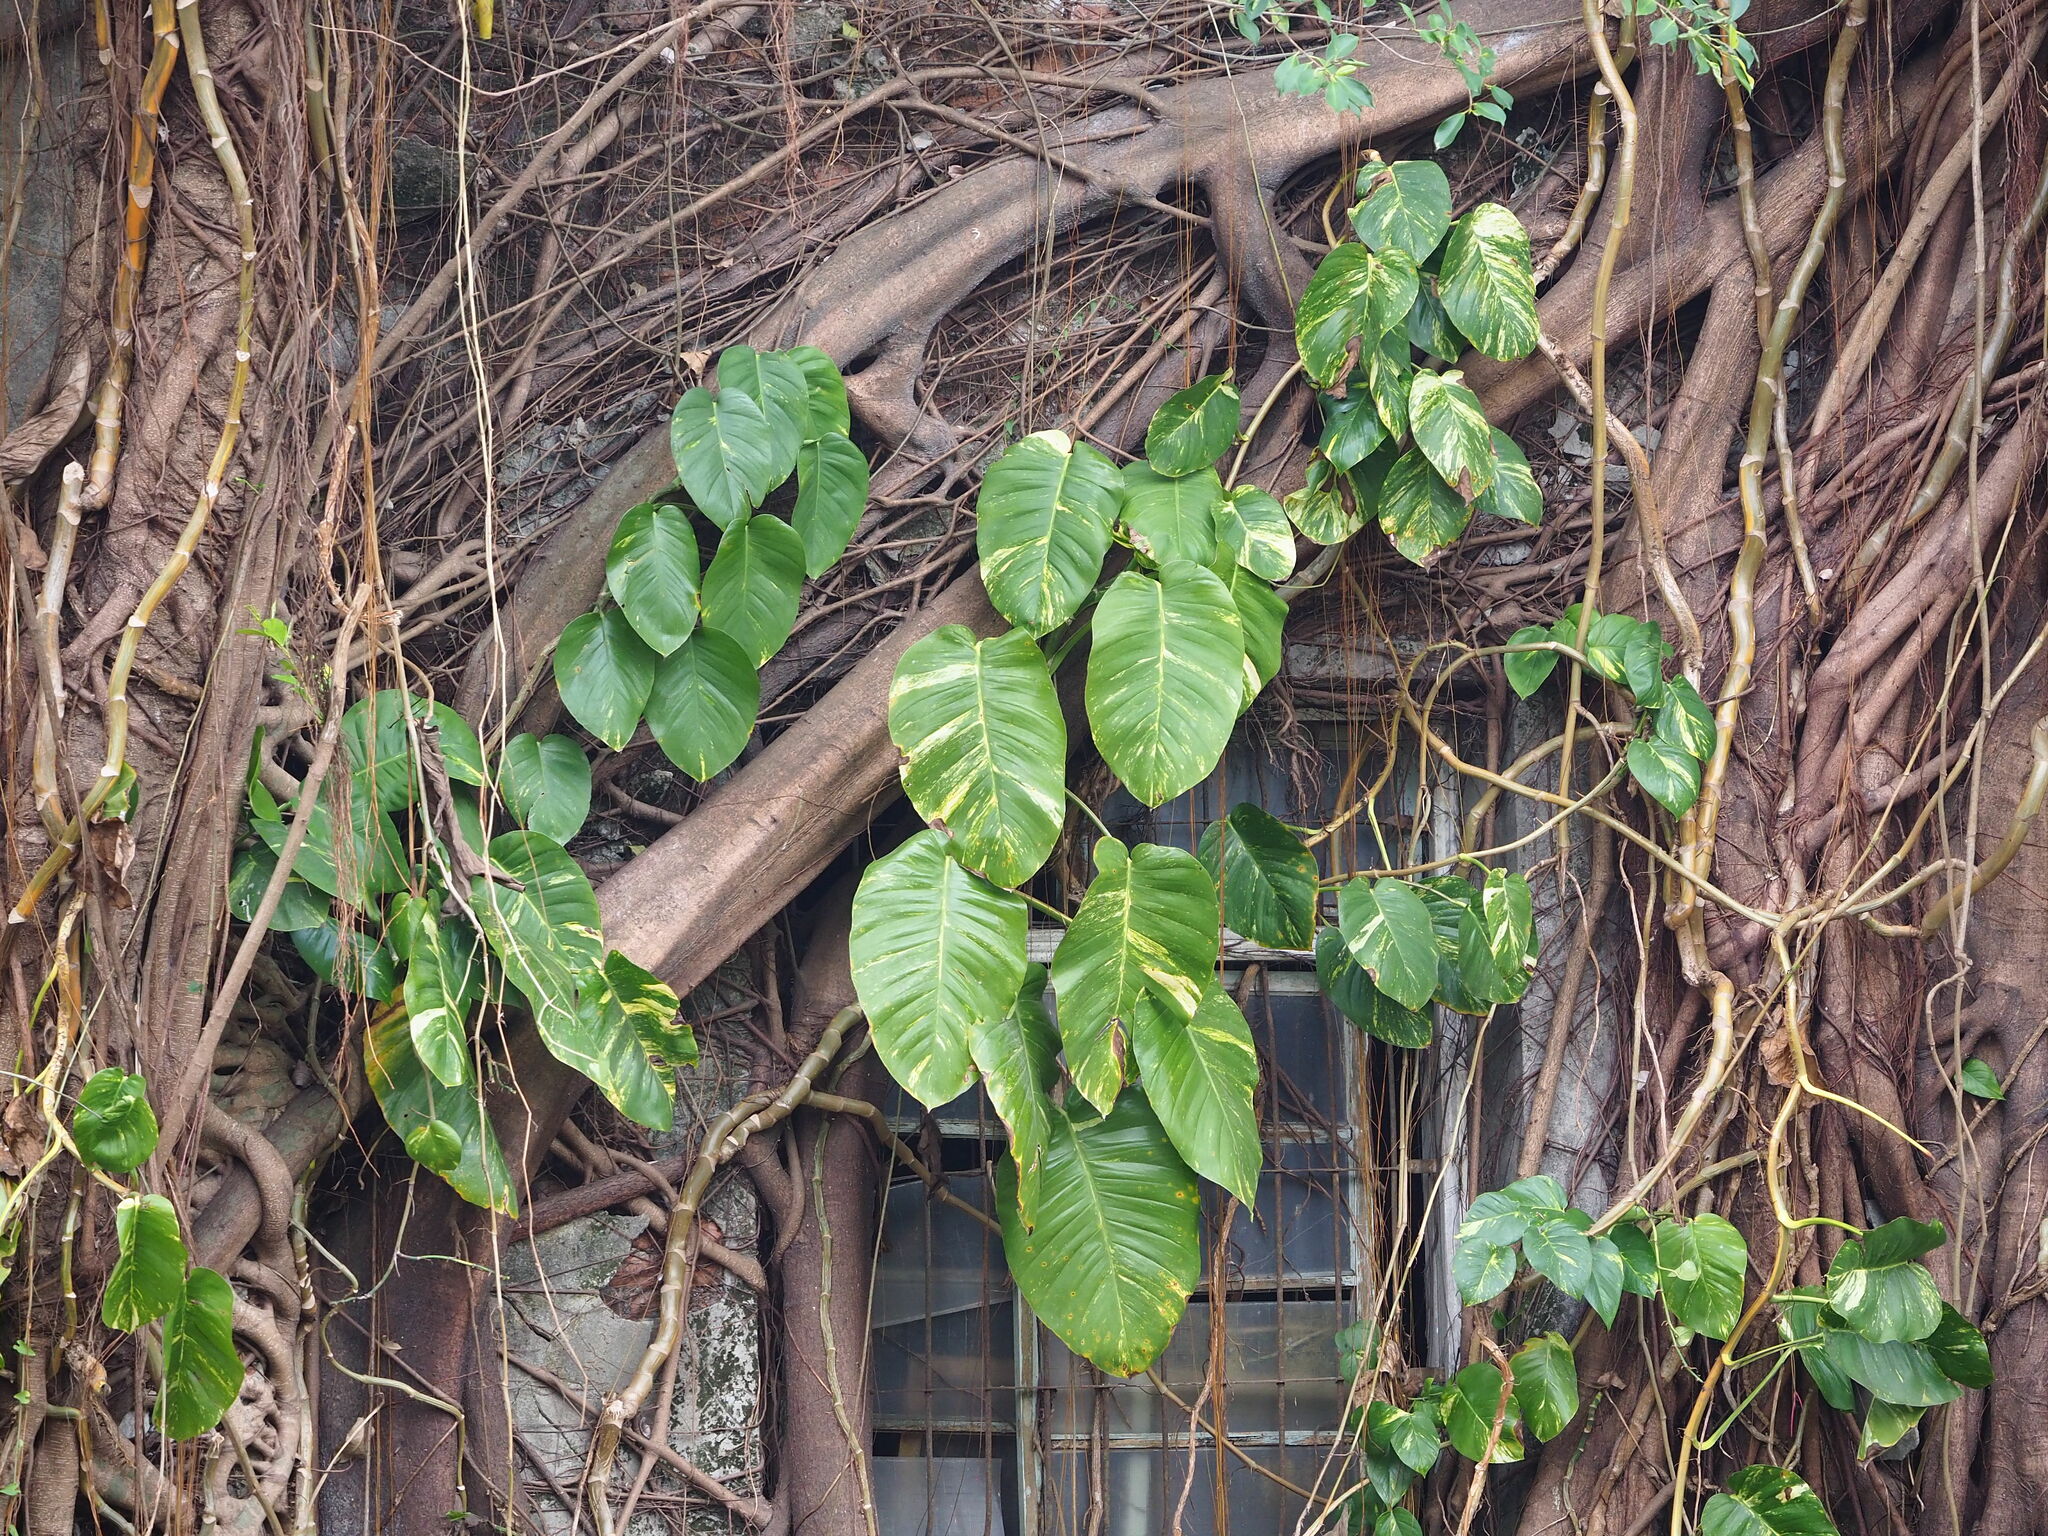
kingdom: Plantae
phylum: Tracheophyta
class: Liliopsida
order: Alismatales
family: Araceae
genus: Epipremnum
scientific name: Epipremnum aureum
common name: Golden hunter's-robe
